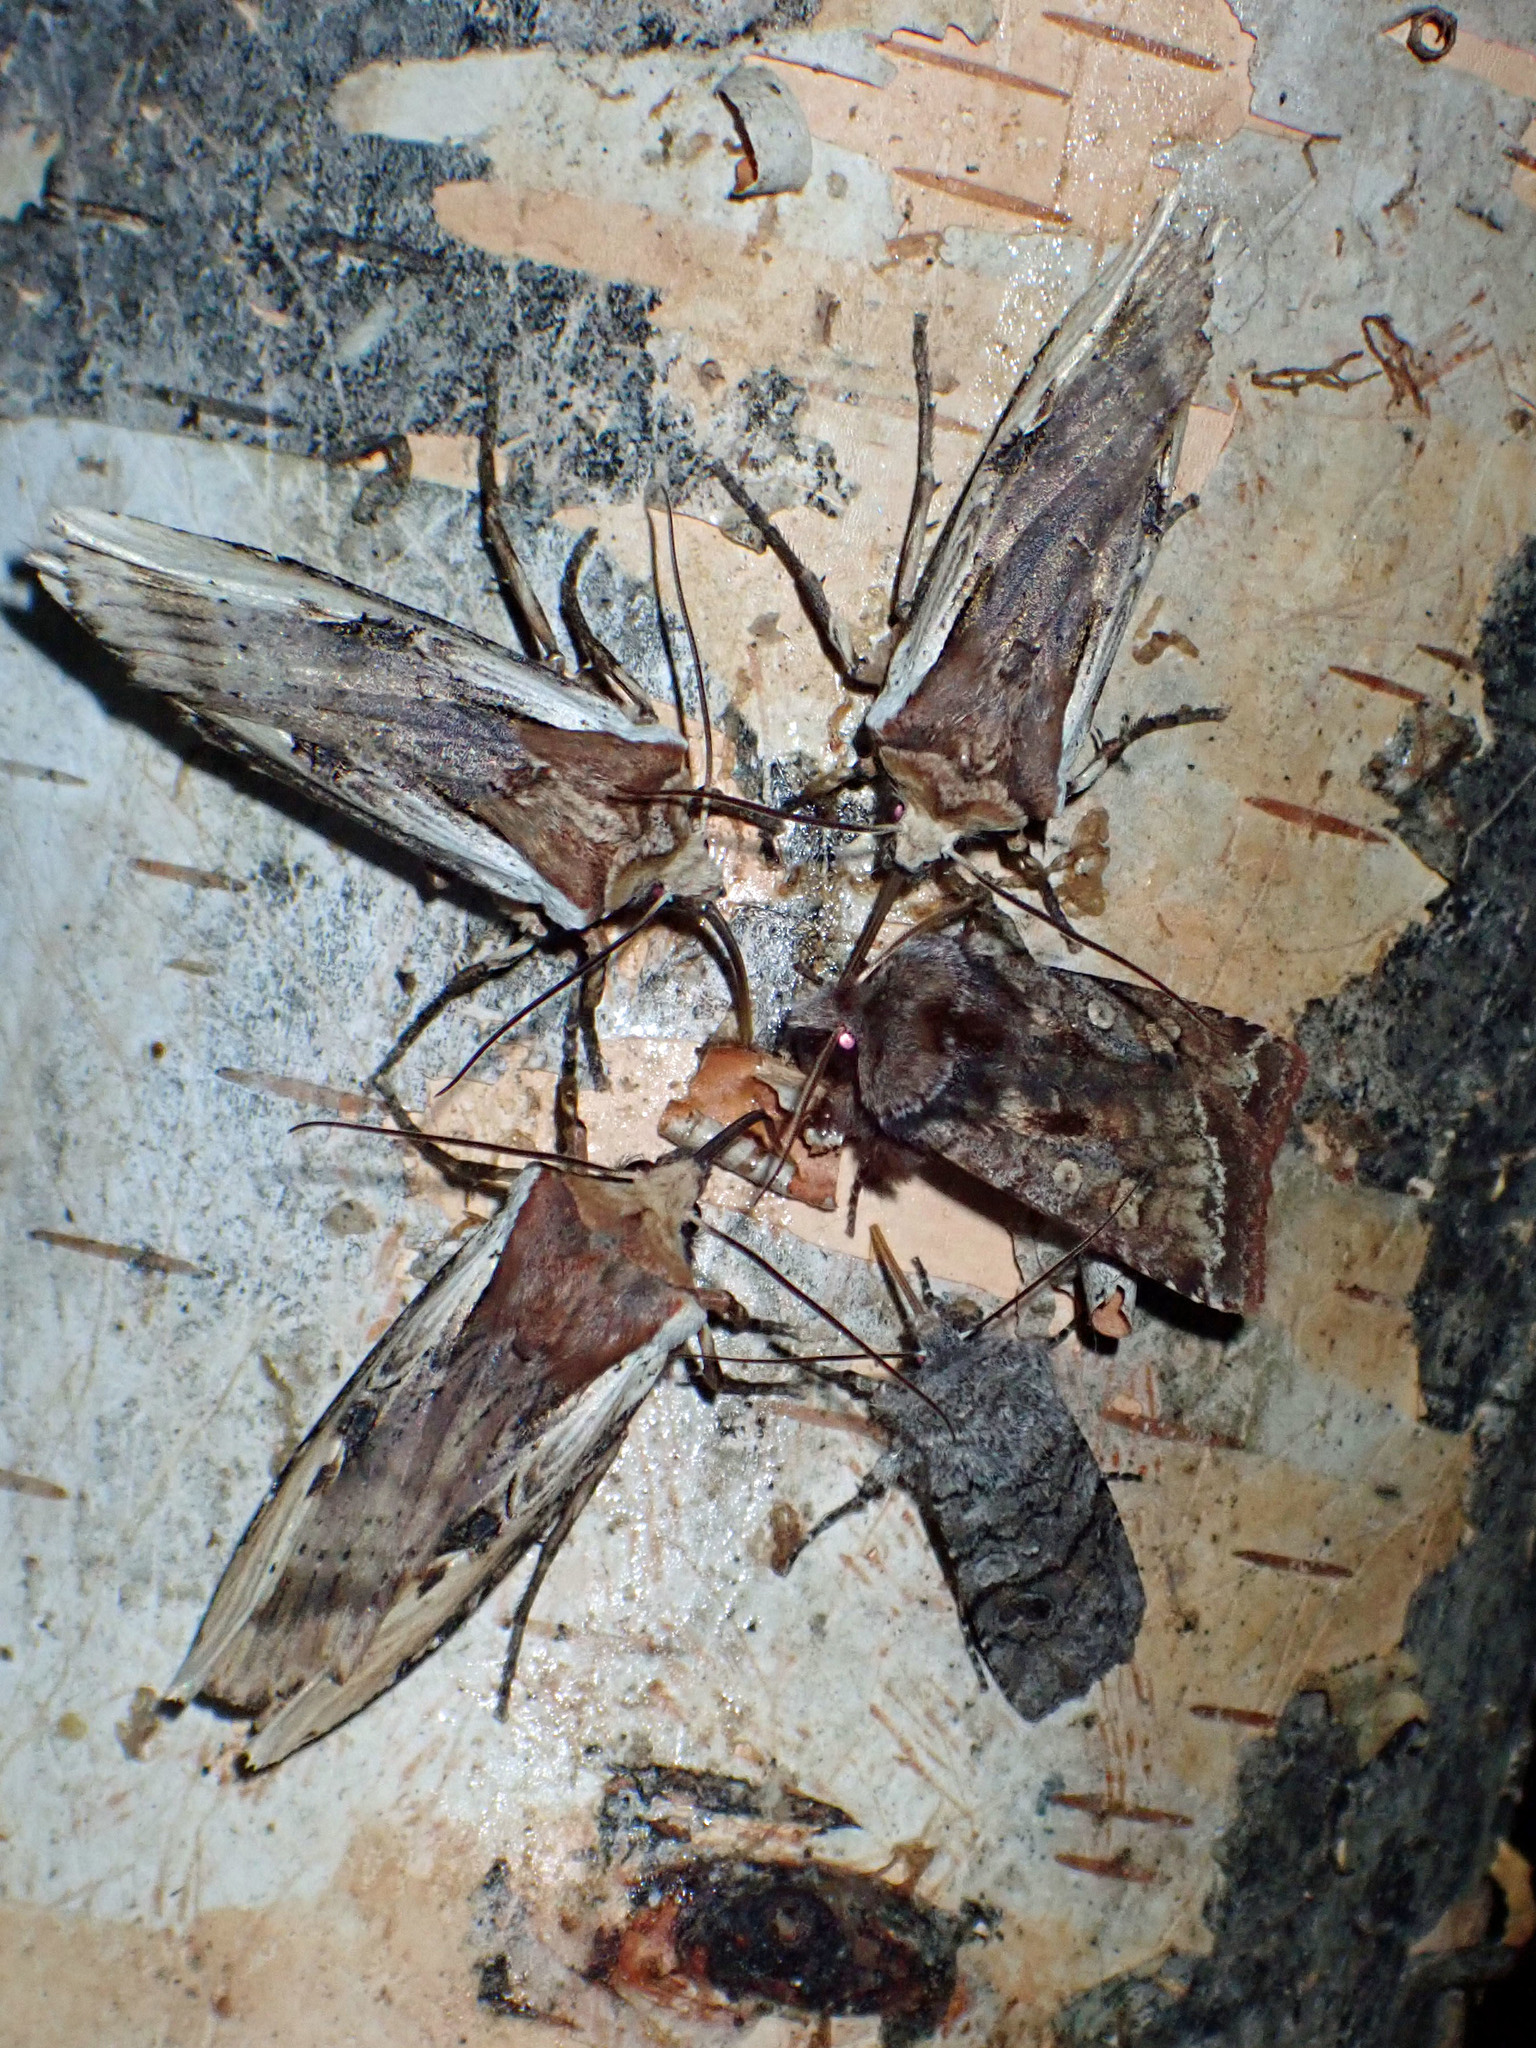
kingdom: Animalia
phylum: Arthropoda
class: Insecta
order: Lepidoptera
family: Noctuidae
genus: Xylena
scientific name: Xylena curvimacula
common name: Dot-and-dash swordgrass moth
